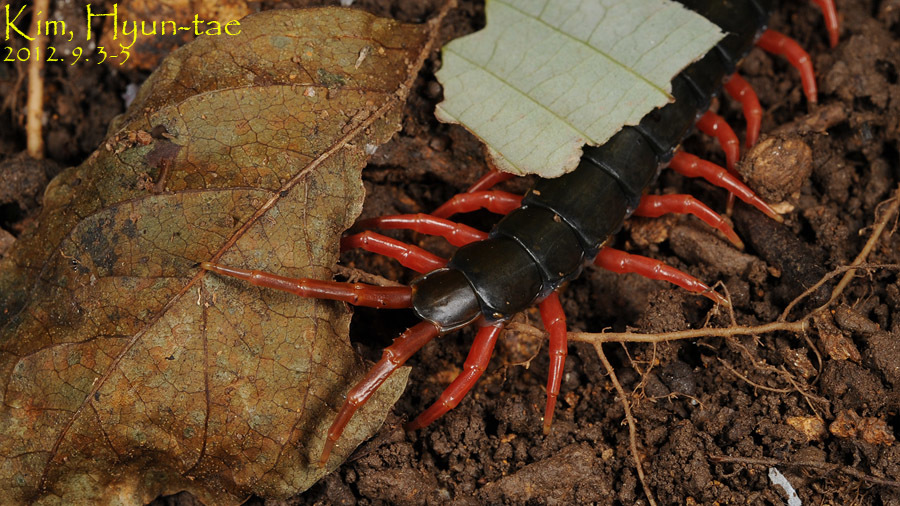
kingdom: Animalia
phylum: Arthropoda
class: Chilopoda
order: Scolopendromorpha
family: Scolopendridae
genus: Scolopendra
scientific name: Scolopendra mutilans
